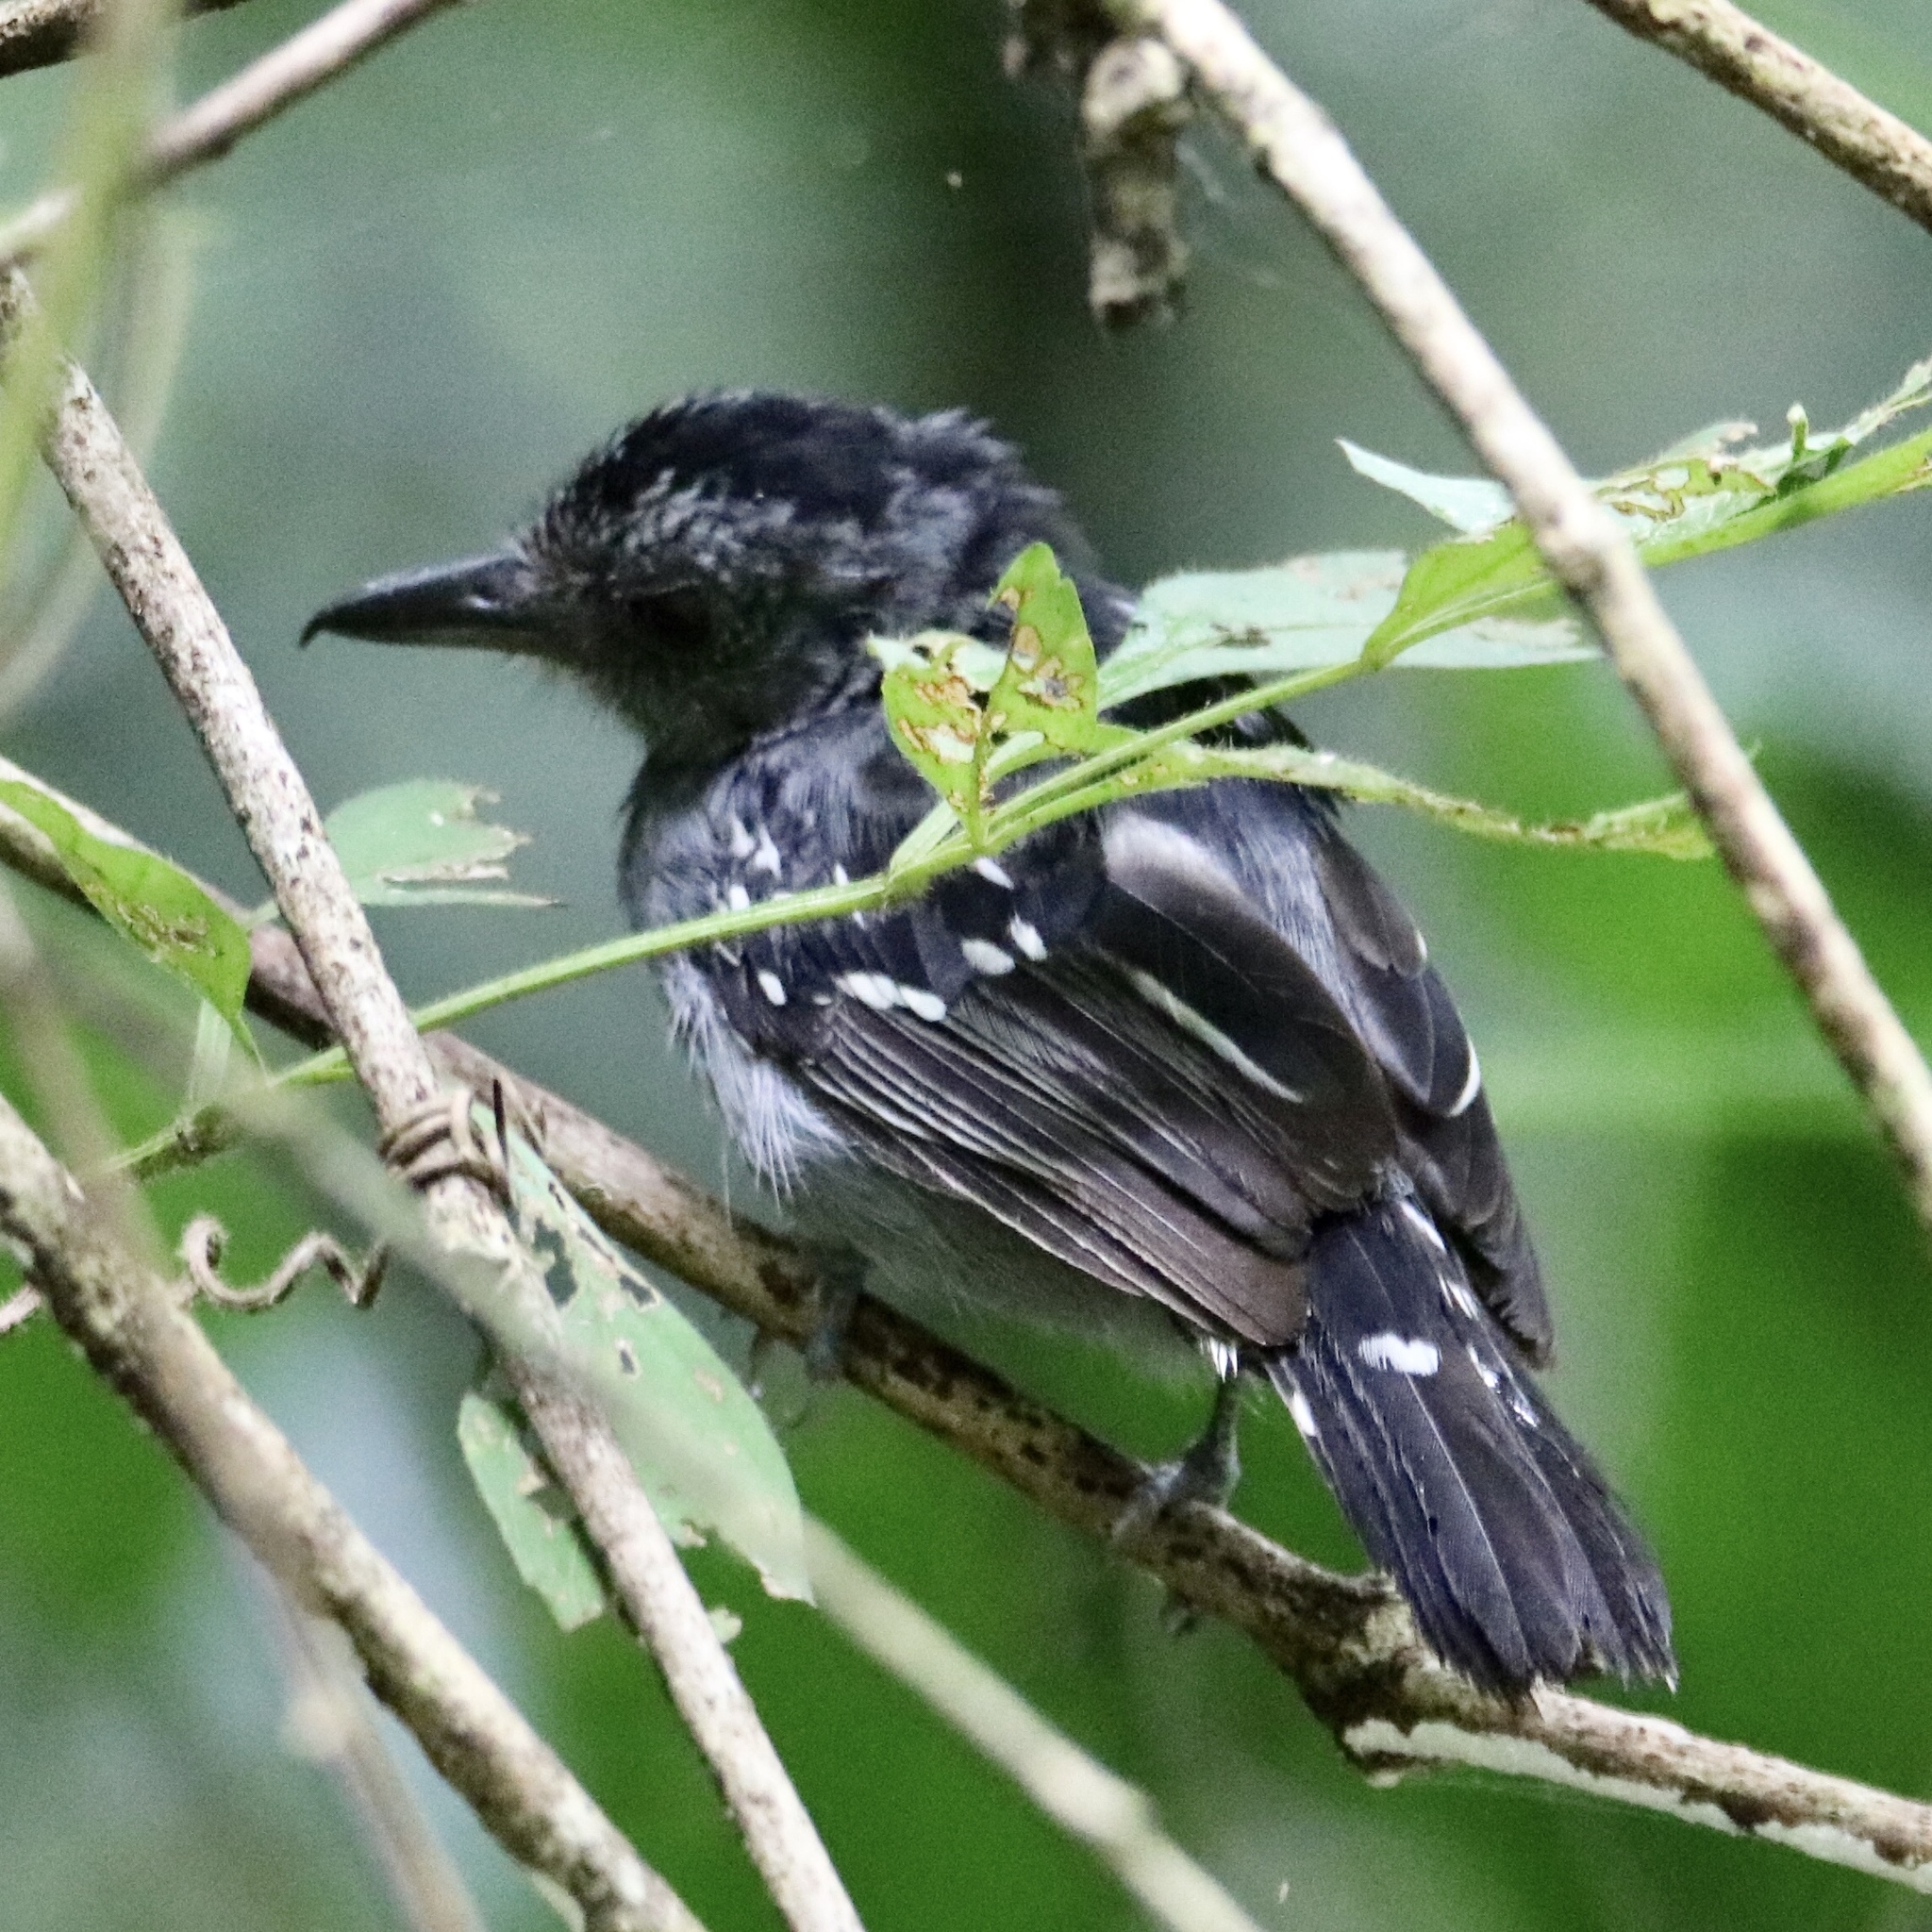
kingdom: Animalia
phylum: Chordata
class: Aves
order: Passeriformes
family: Thamnophilidae
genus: Thamnophilus
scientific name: Thamnophilus atrinucha
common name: Black-crowned antshrike
